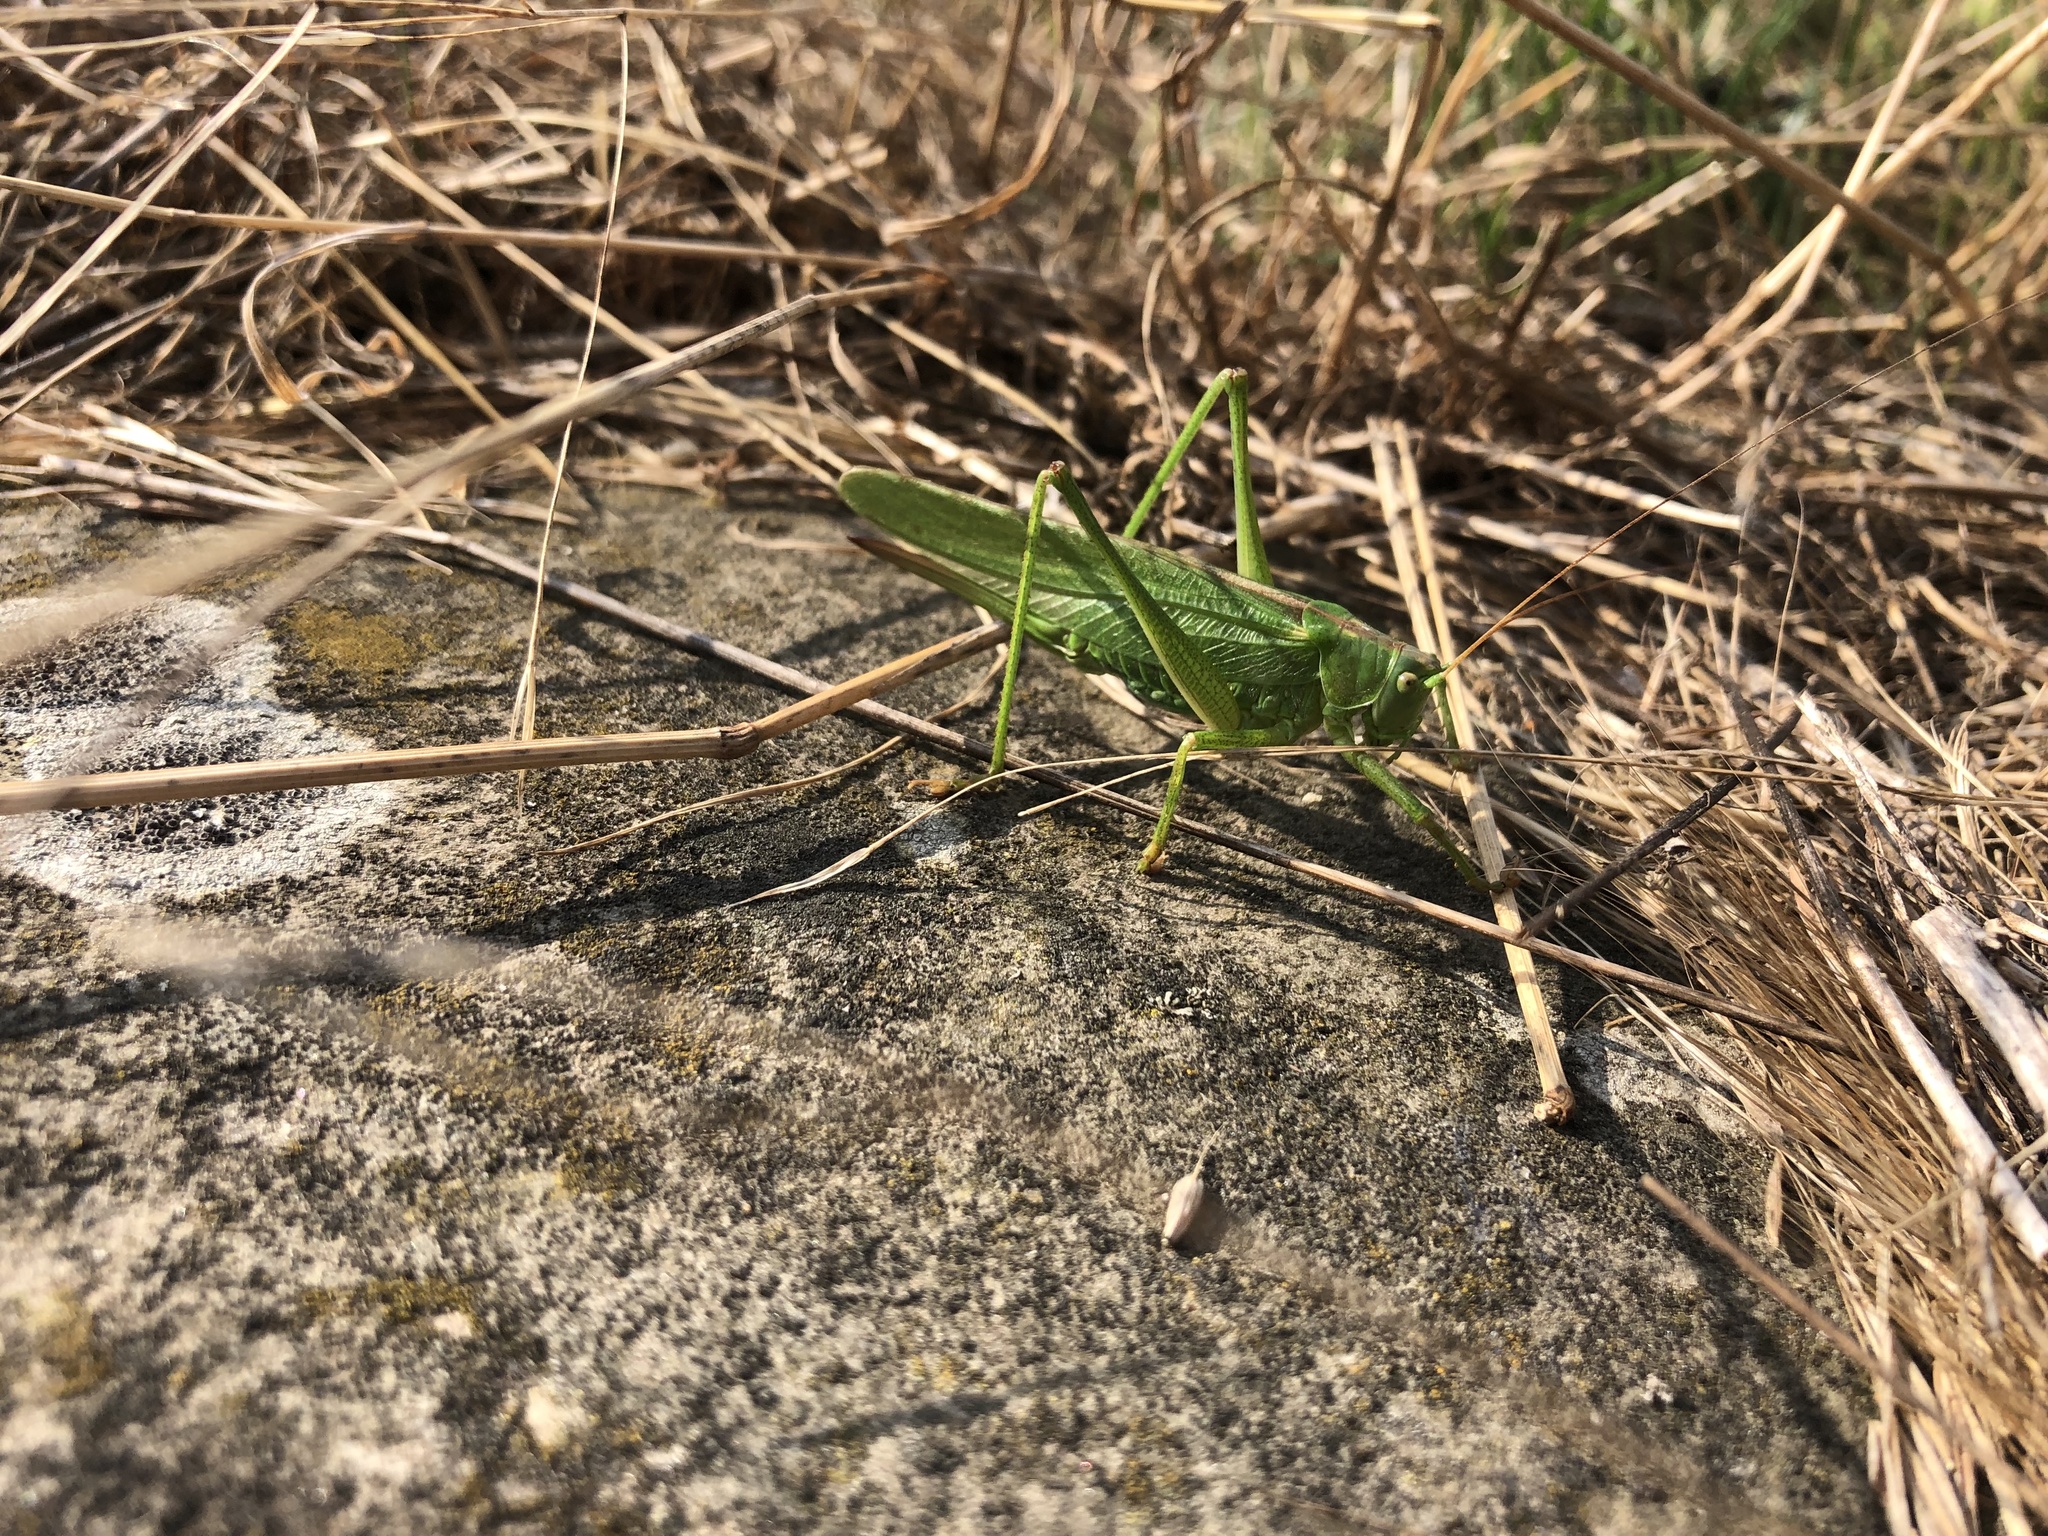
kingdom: Animalia
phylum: Arthropoda
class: Insecta
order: Orthoptera
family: Tettigoniidae
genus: Tettigonia
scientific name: Tettigonia viridissima
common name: Great green bush-cricket
